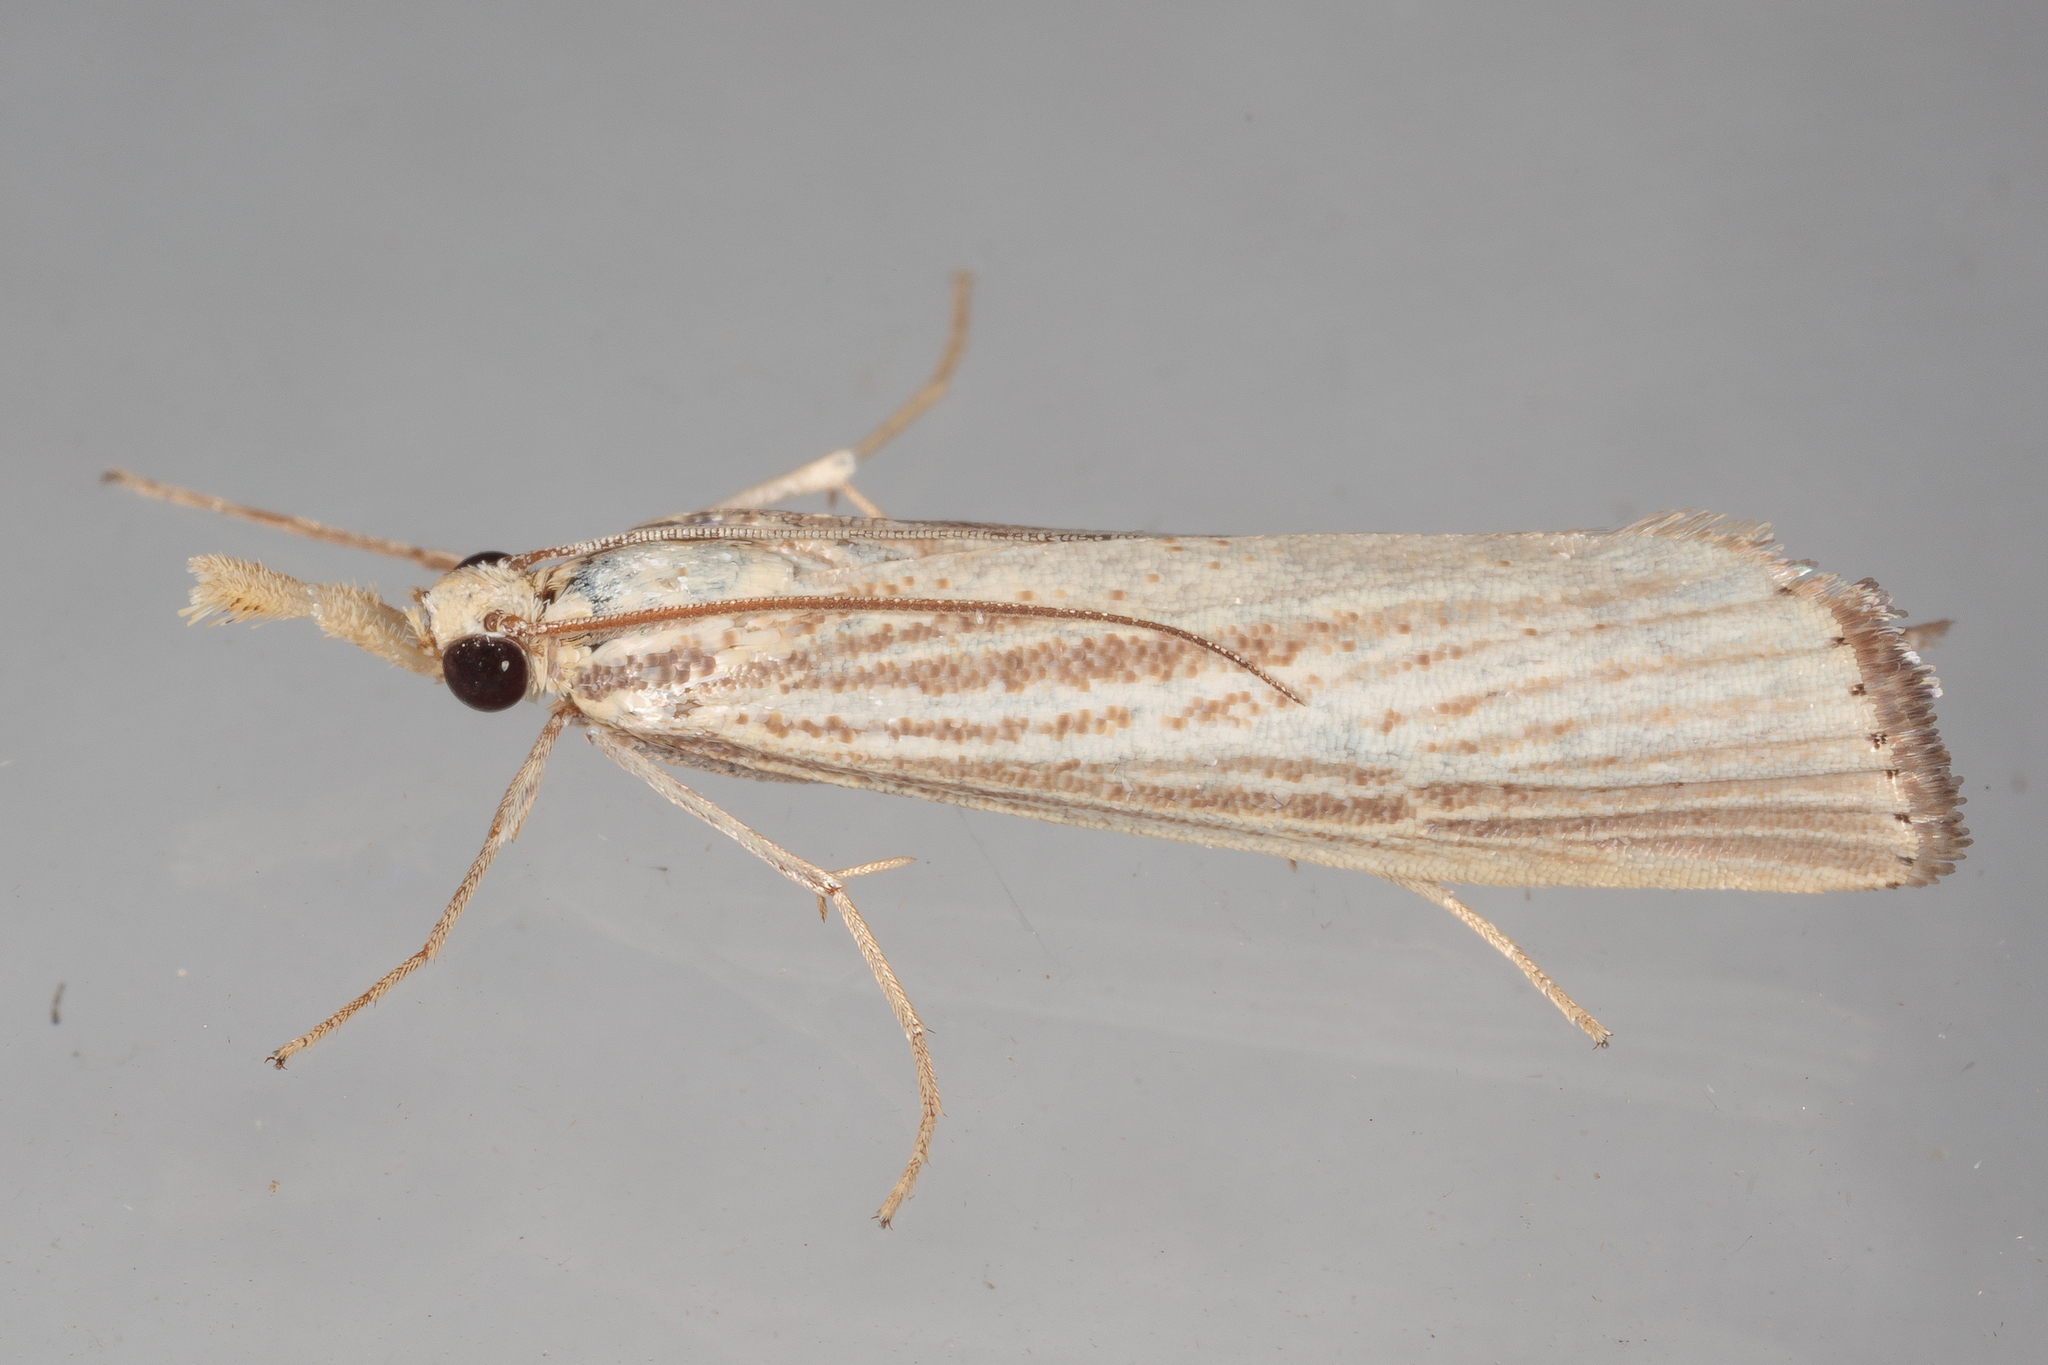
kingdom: Animalia
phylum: Arthropoda
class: Insecta
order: Lepidoptera
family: Crambidae
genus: Agriphila
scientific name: Agriphila vulgivagellus
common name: Vagabond crambus moth
